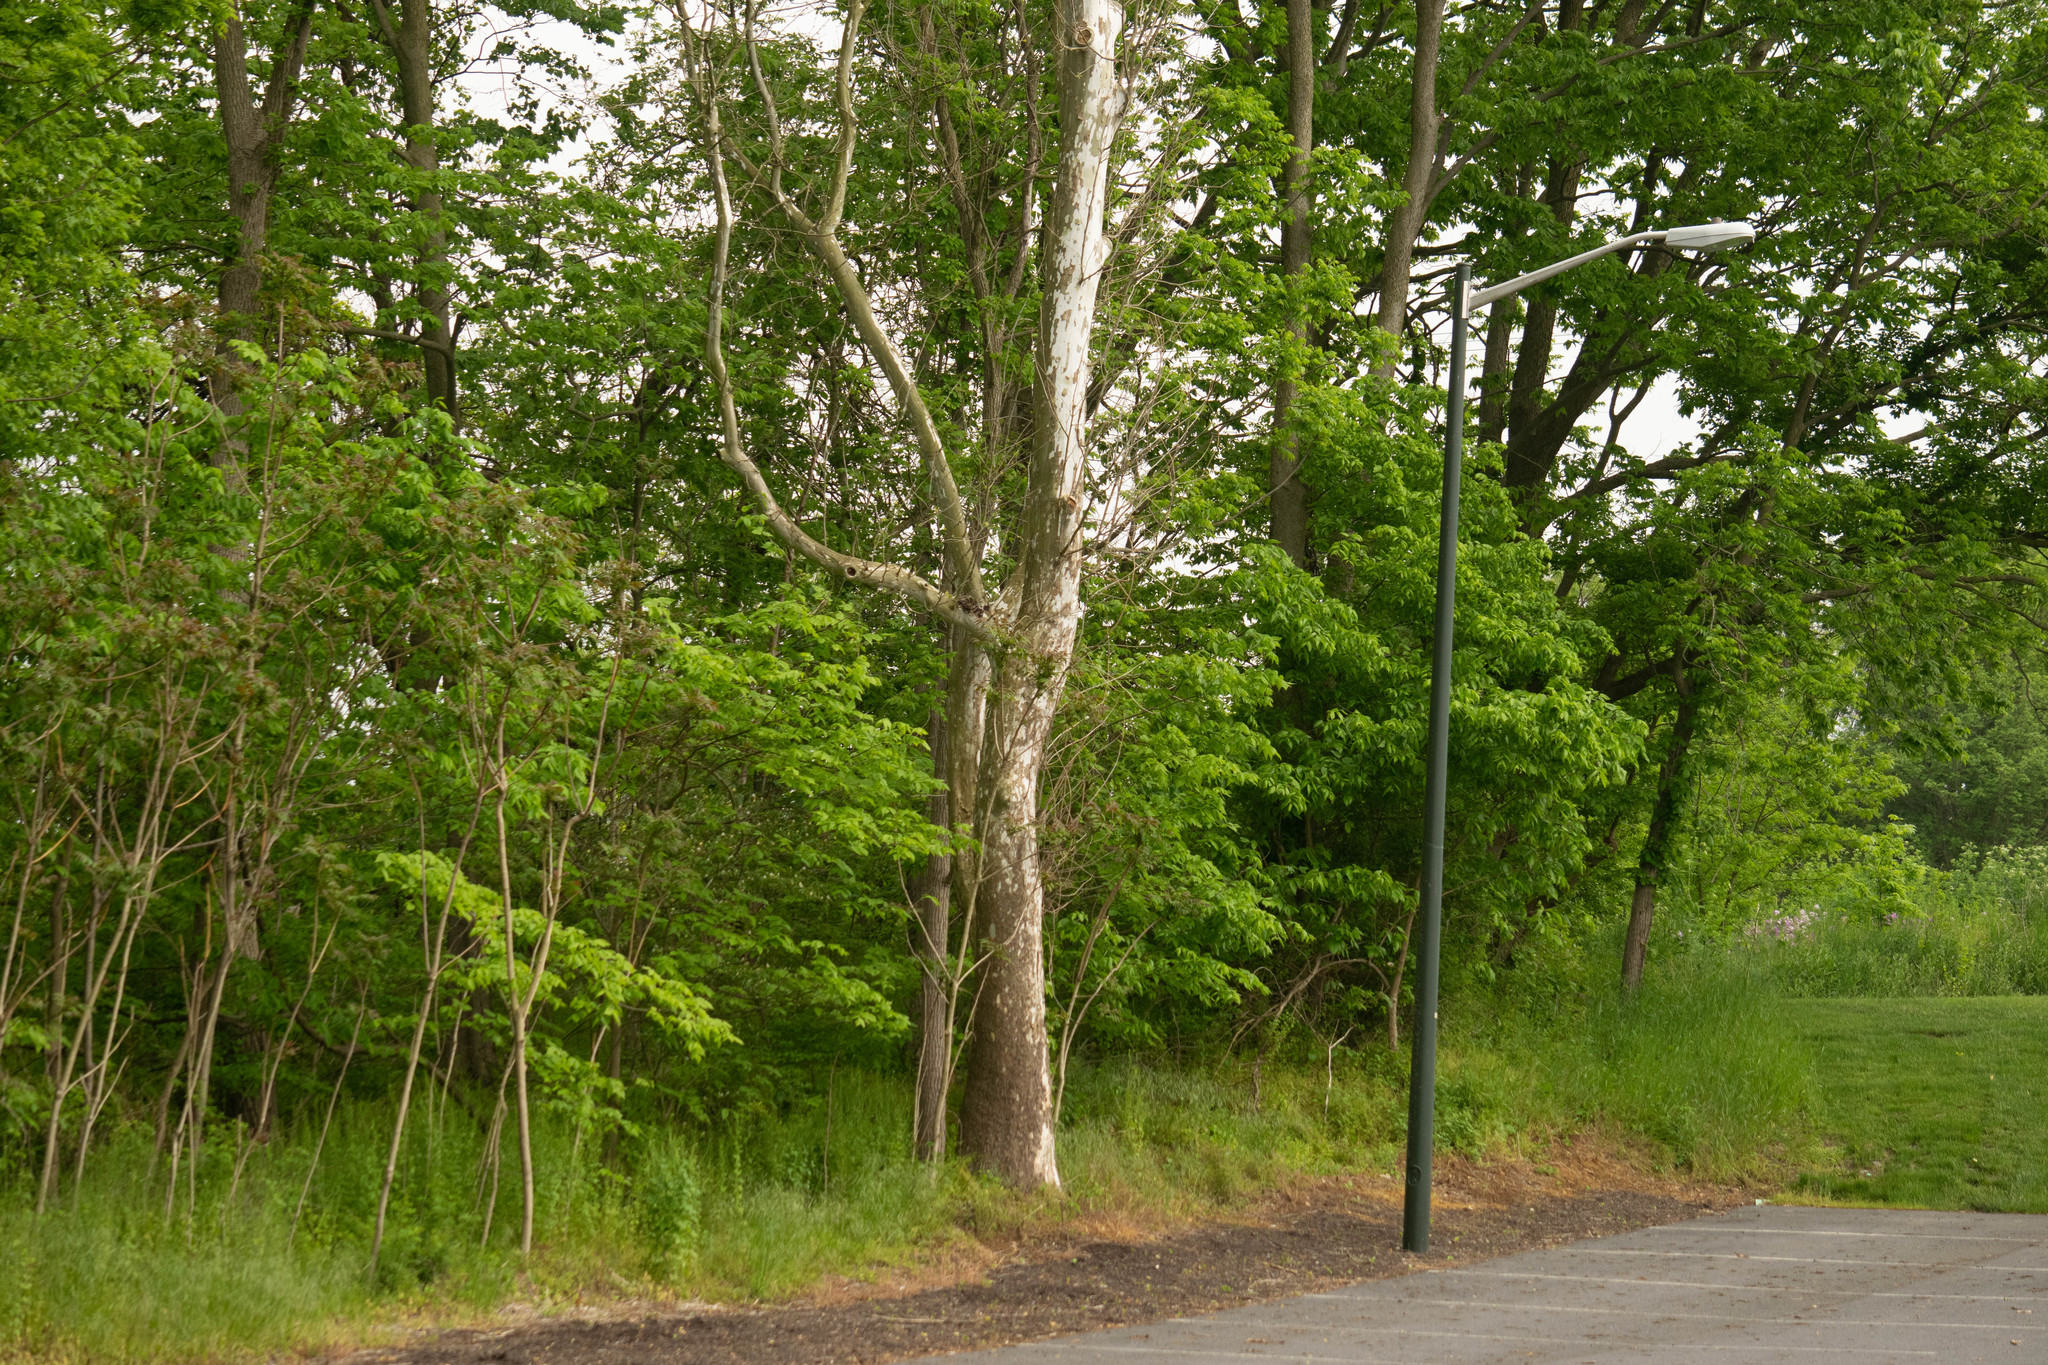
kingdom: Plantae
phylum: Tracheophyta
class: Magnoliopsida
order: Proteales
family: Platanaceae
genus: Platanus
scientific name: Platanus occidentalis
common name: American sycamore
